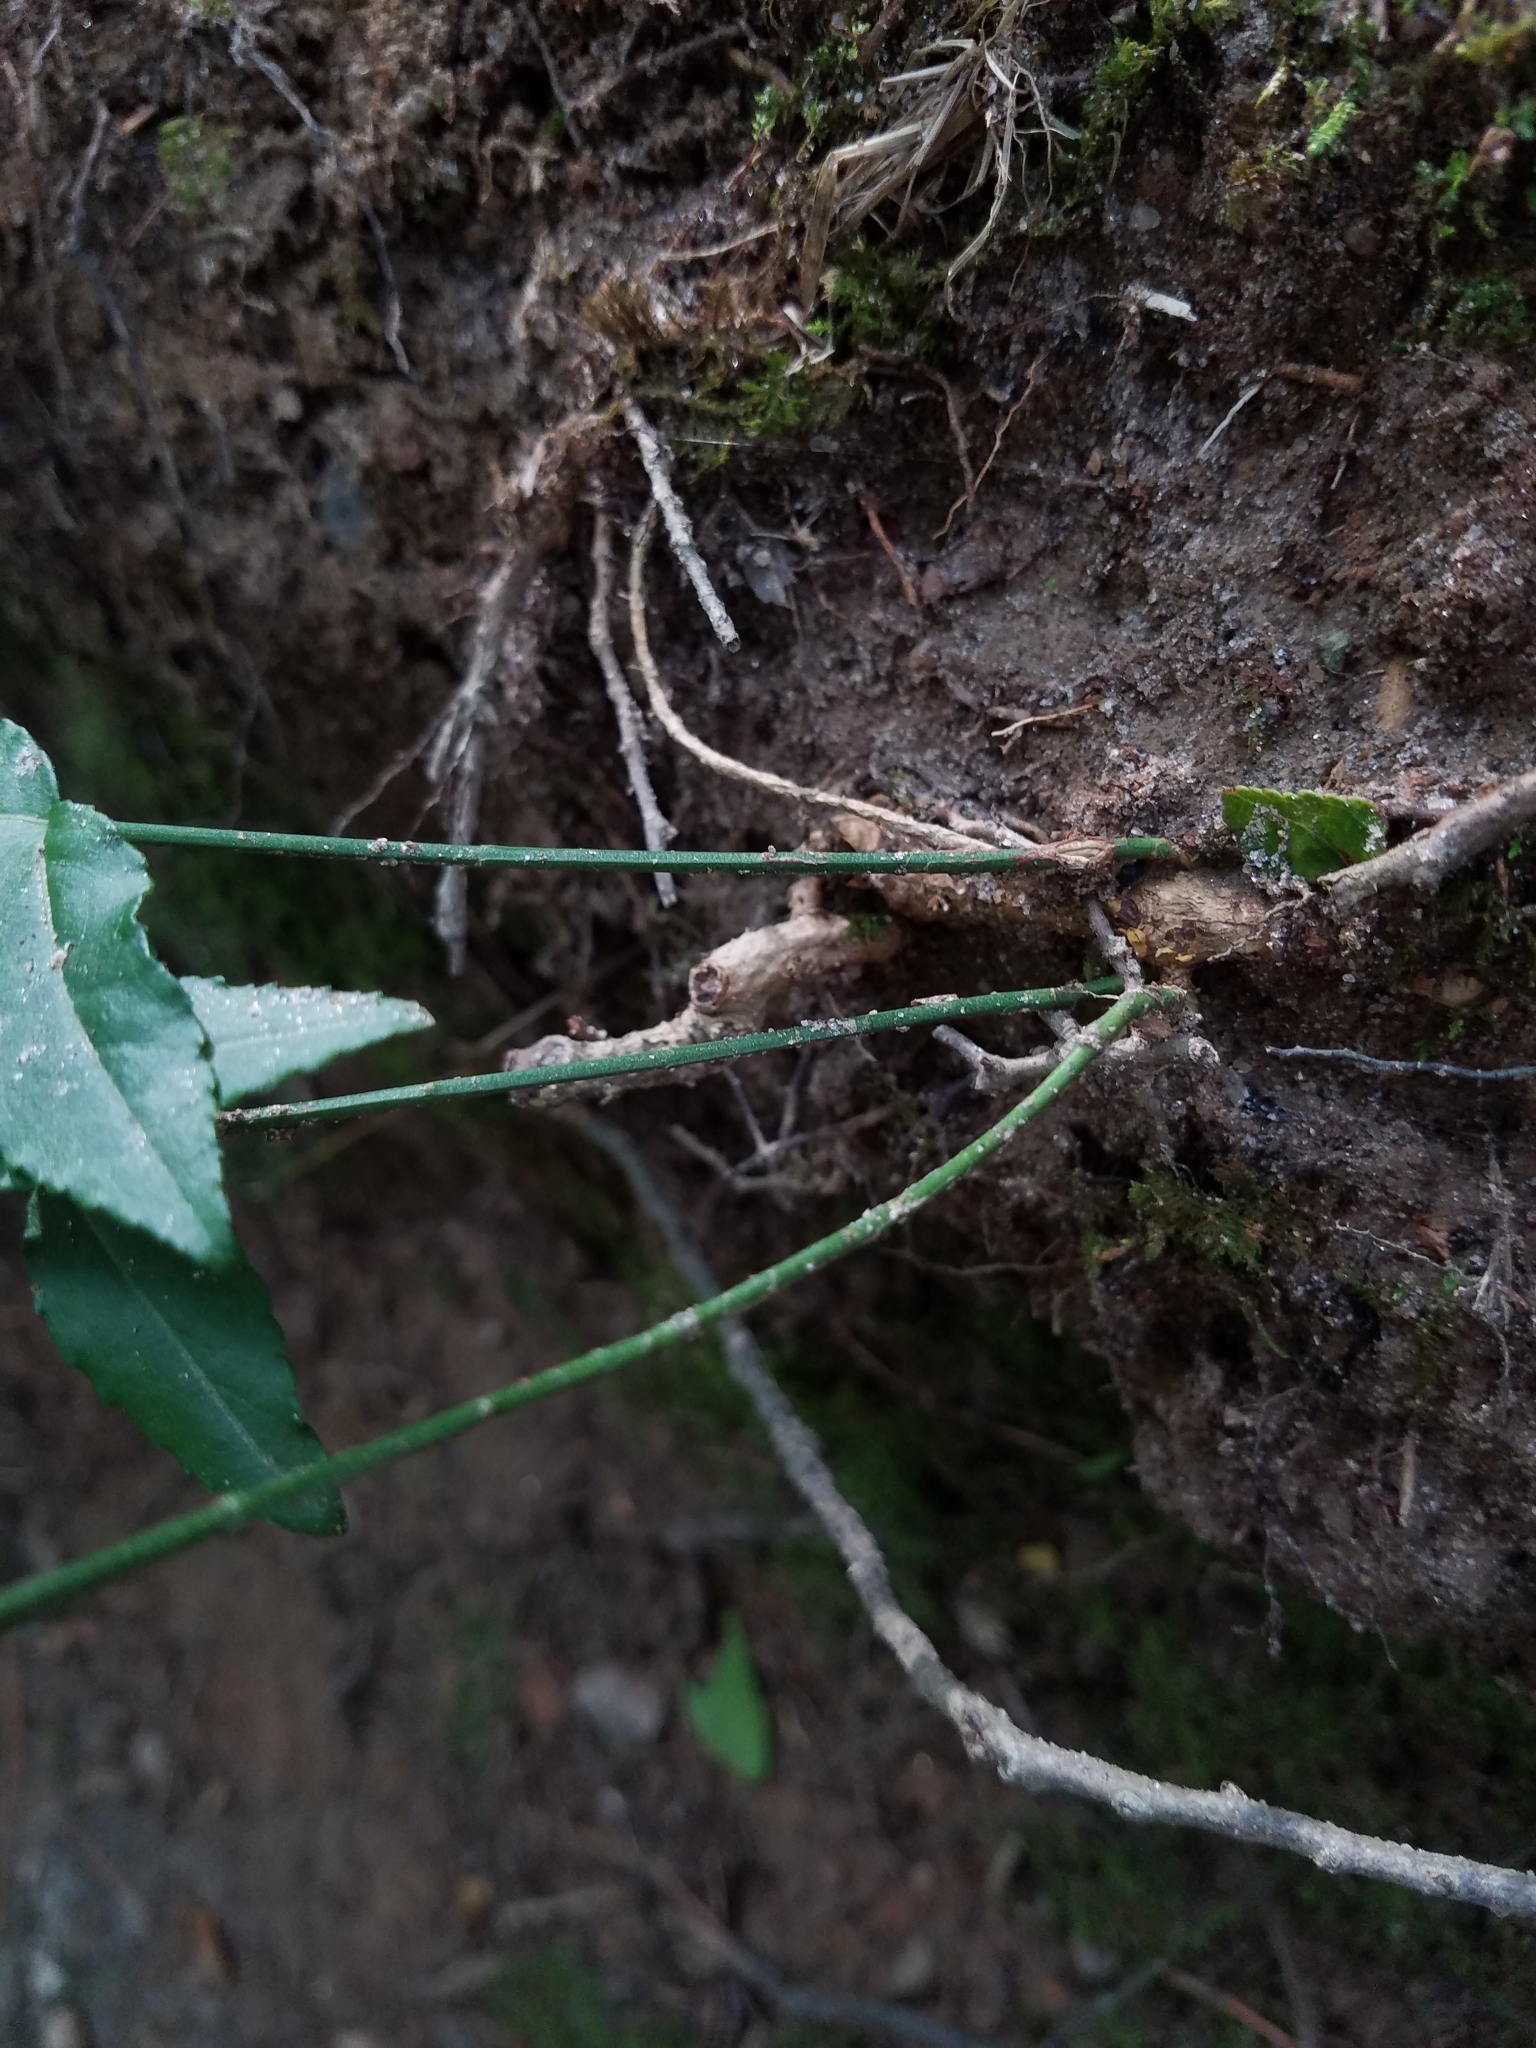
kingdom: Plantae
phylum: Tracheophyta
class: Magnoliopsida
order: Celastrales
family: Celastraceae
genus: Euonymus
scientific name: Euonymus americanus
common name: Bursting-heart
